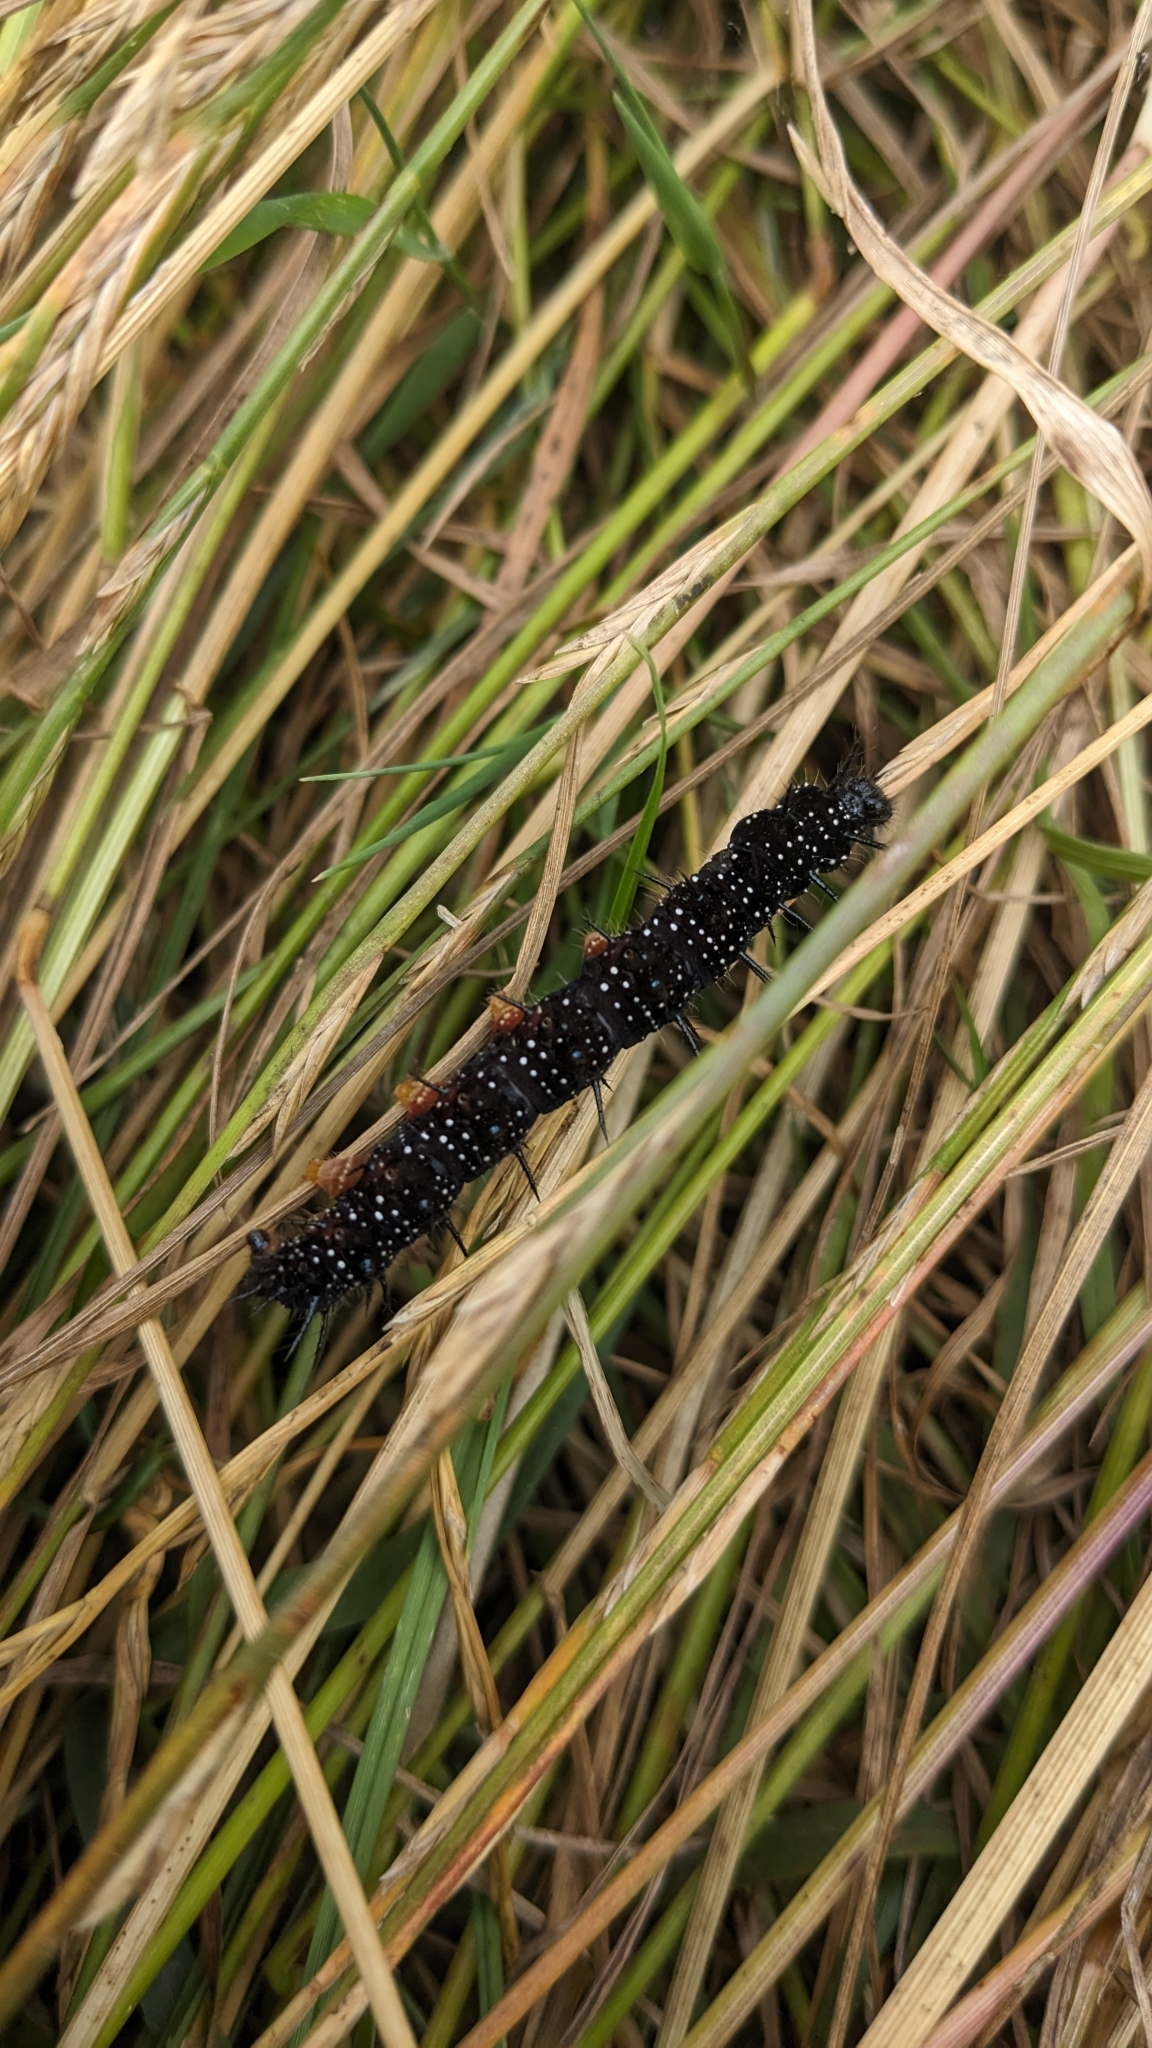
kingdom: Animalia
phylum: Arthropoda
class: Insecta
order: Lepidoptera
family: Nymphalidae
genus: Aglais
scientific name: Aglais io
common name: Peacock
